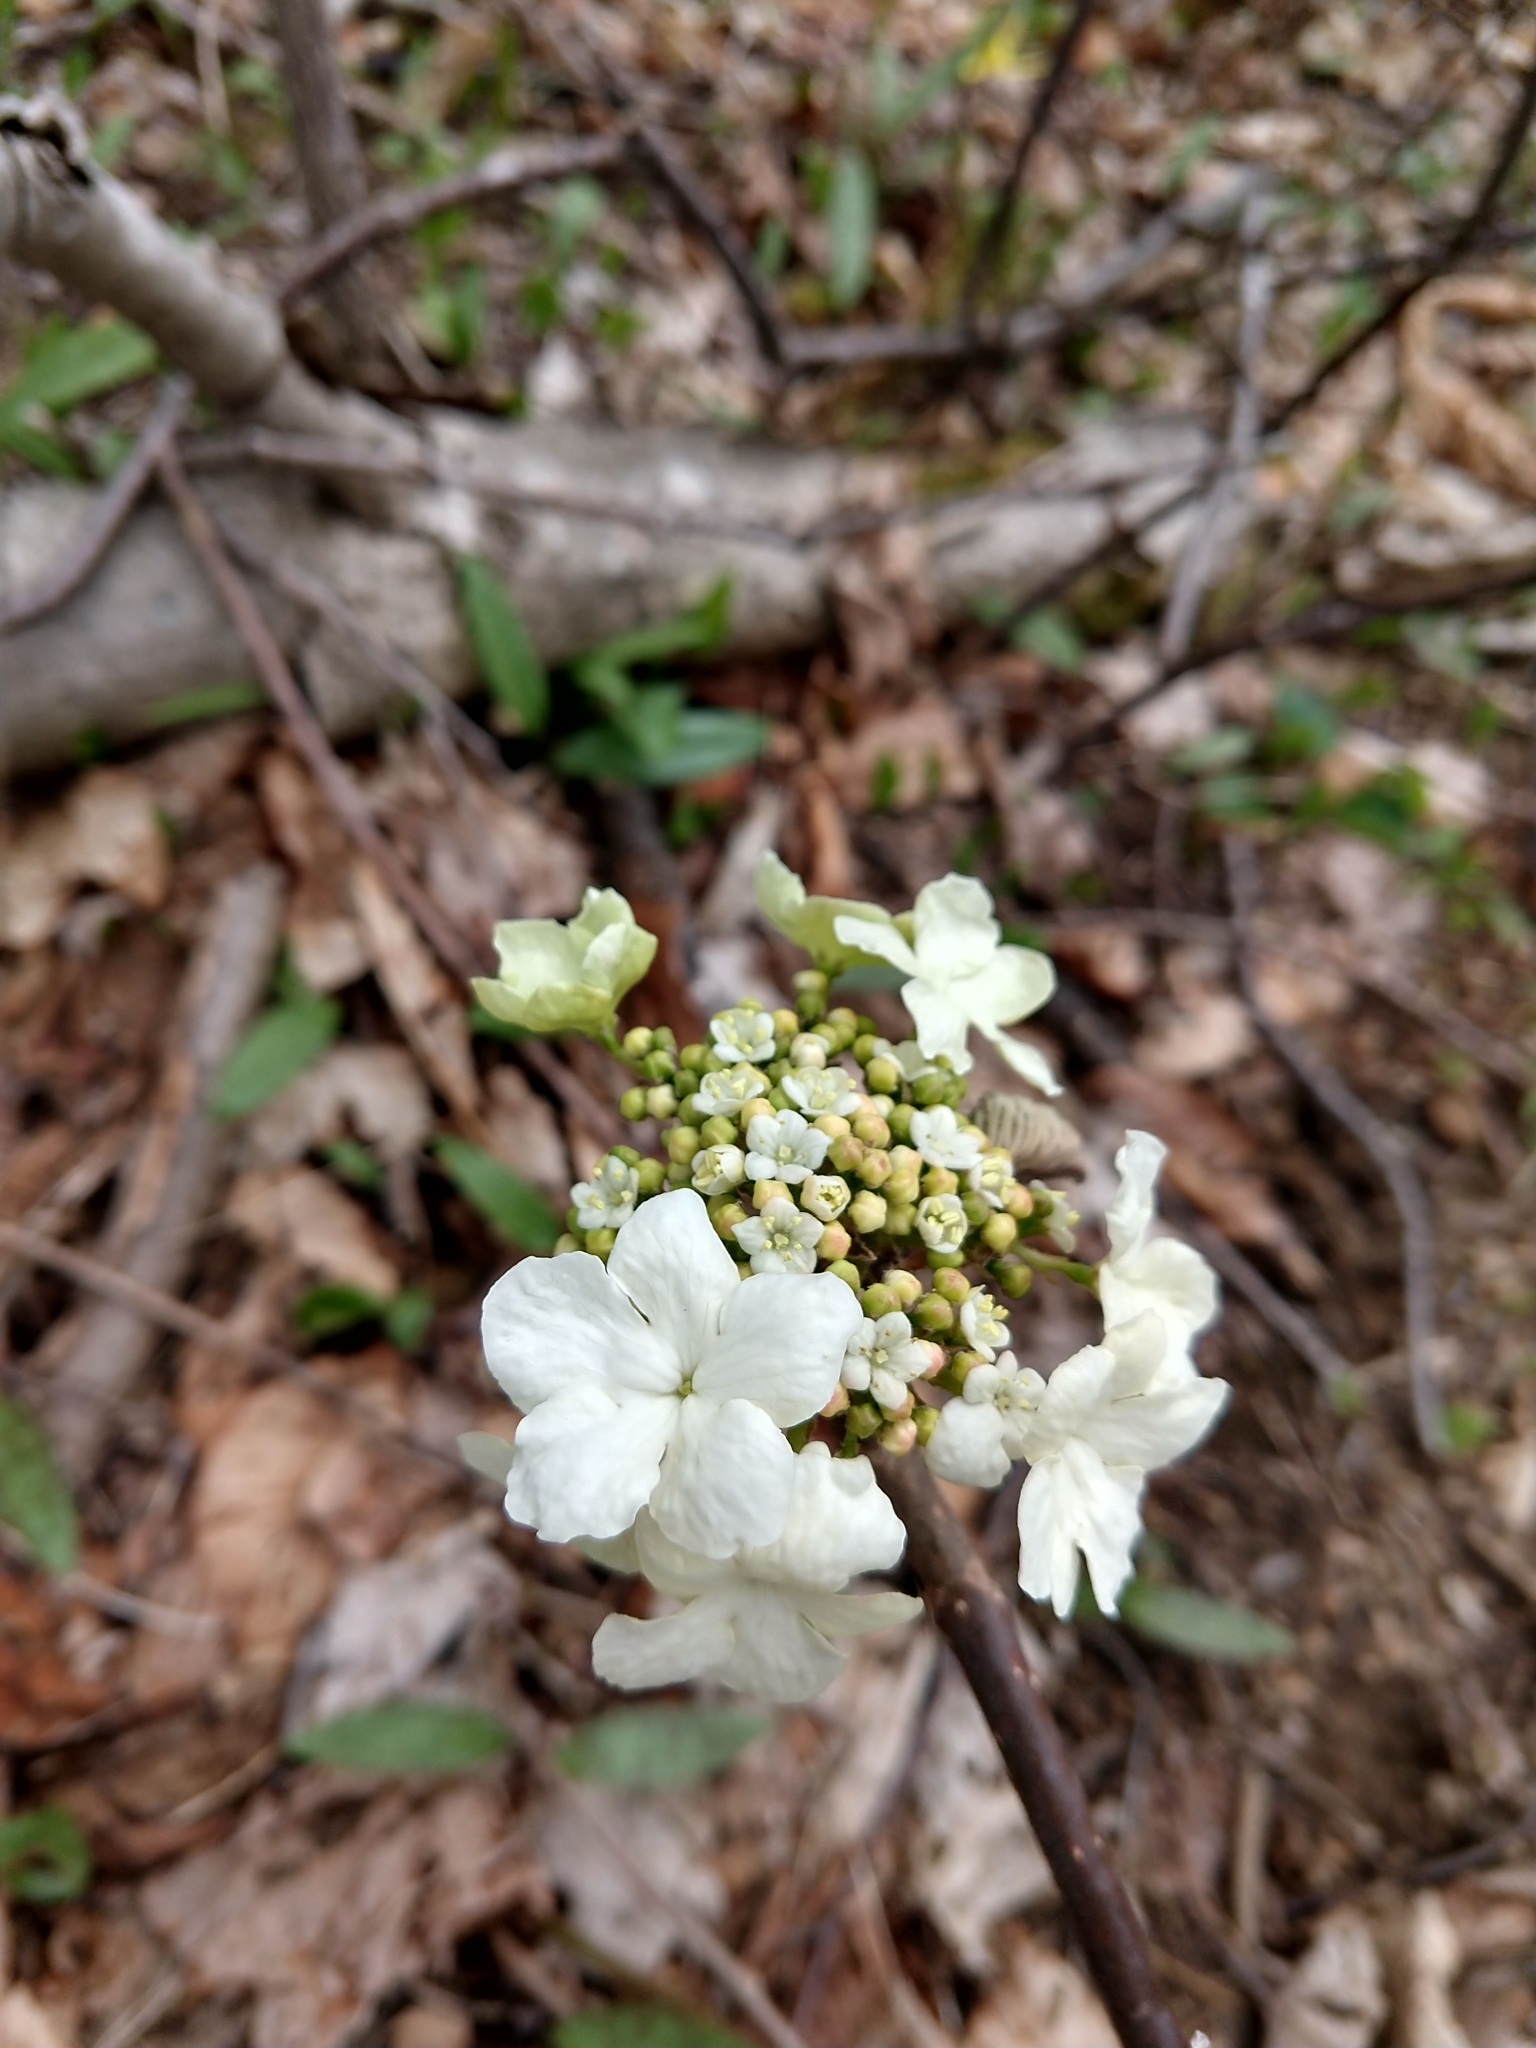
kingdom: Plantae
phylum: Tracheophyta
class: Magnoliopsida
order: Dipsacales
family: Viburnaceae
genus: Viburnum
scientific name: Viburnum lantanoides
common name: Hobblebush
